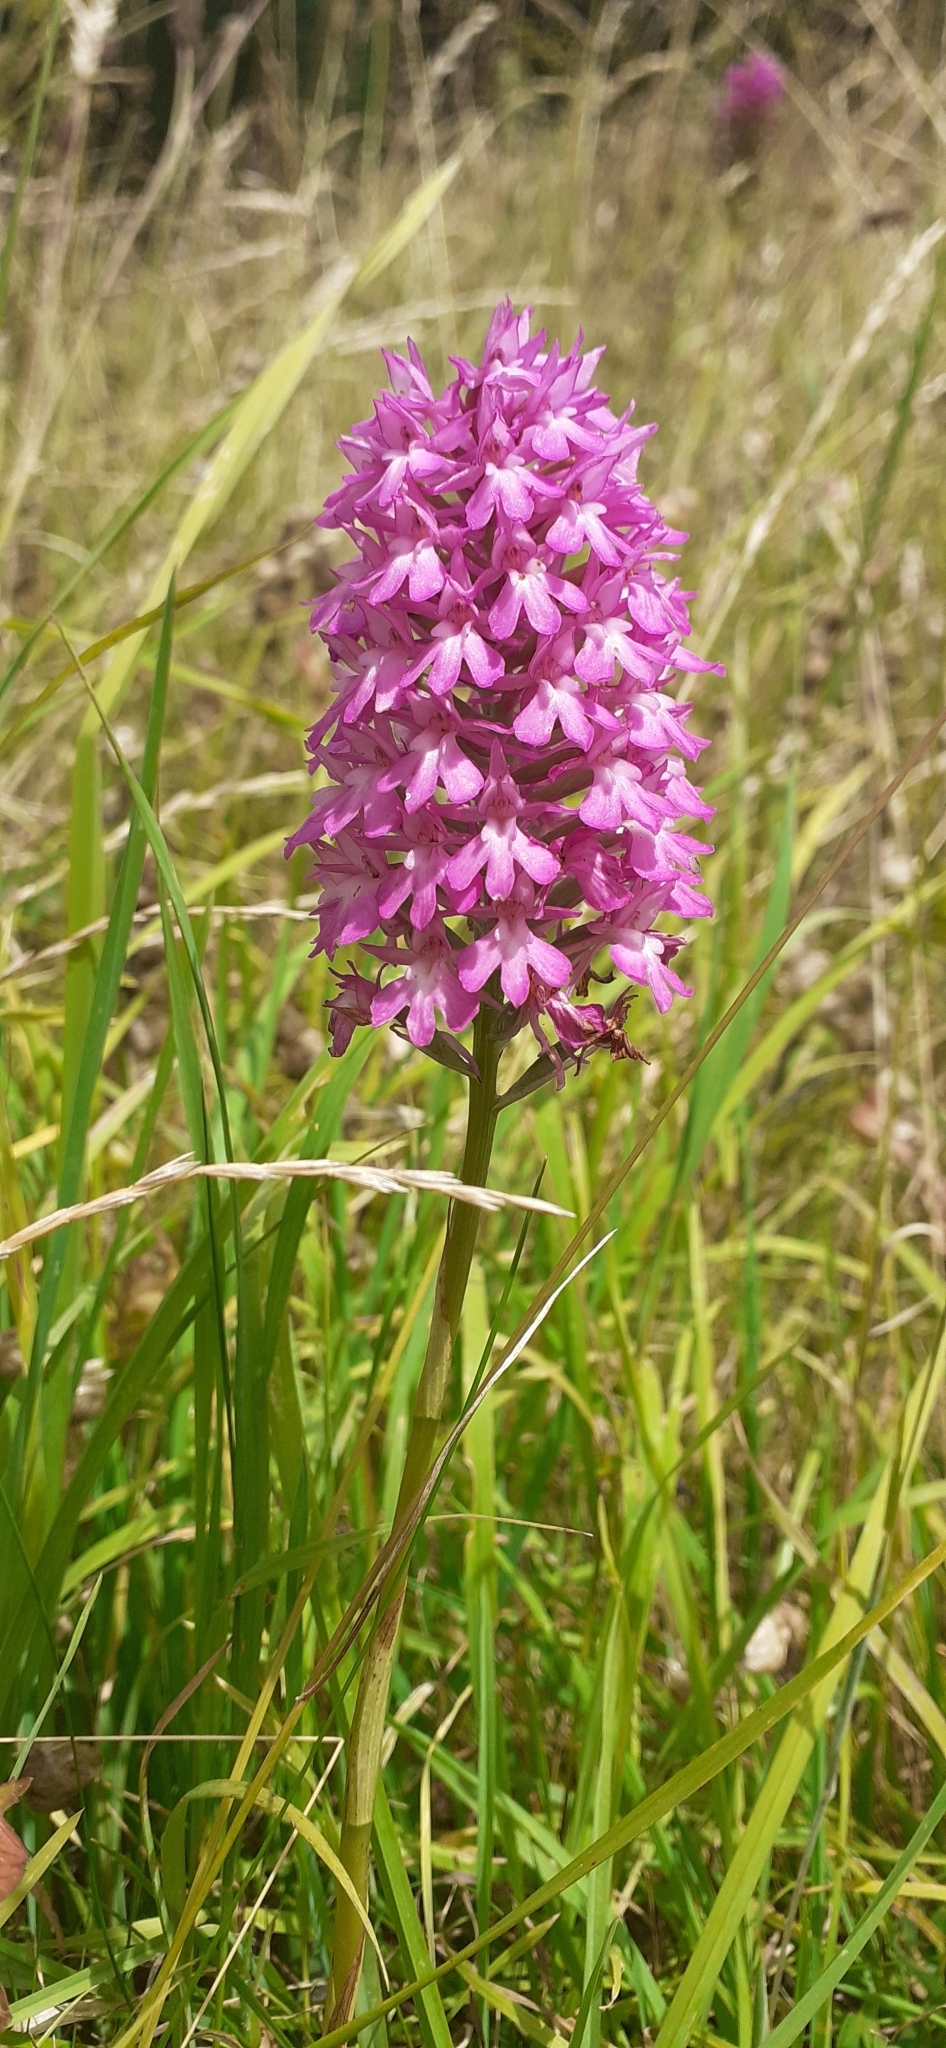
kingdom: Plantae
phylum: Tracheophyta
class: Liliopsida
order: Asparagales
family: Orchidaceae
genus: Anacamptis
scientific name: Anacamptis pyramidalis
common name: Pyramidal orchid
